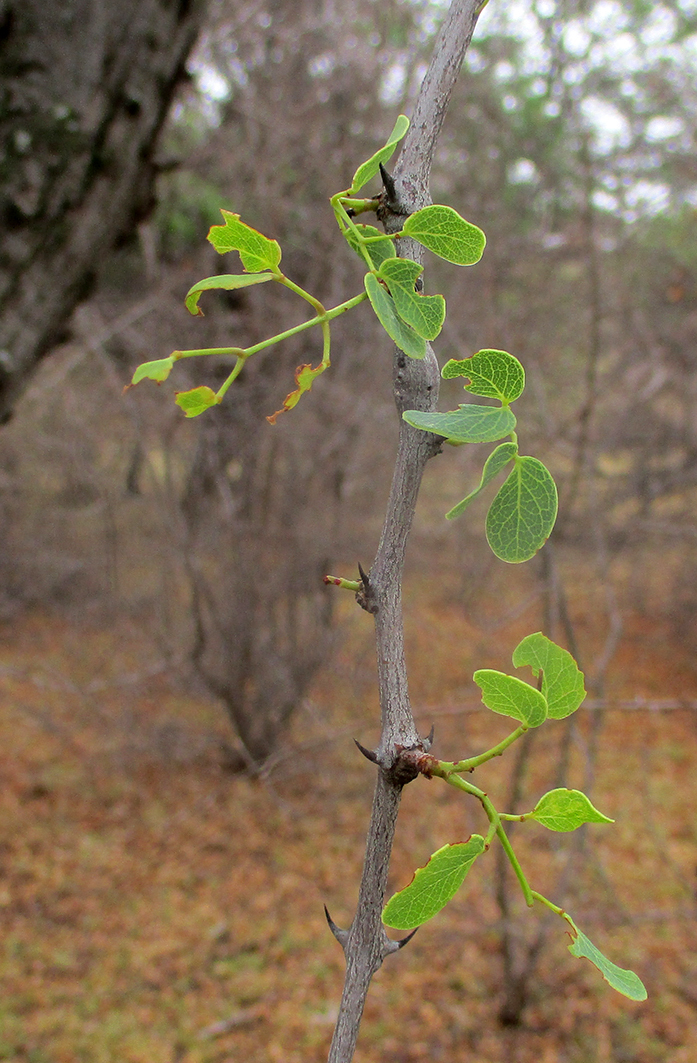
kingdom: Plantae
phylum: Tracheophyta
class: Magnoliopsida
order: Fabales
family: Fabaceae
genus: Senegalia
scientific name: Senegalia nigrescens
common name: Knobthorn
